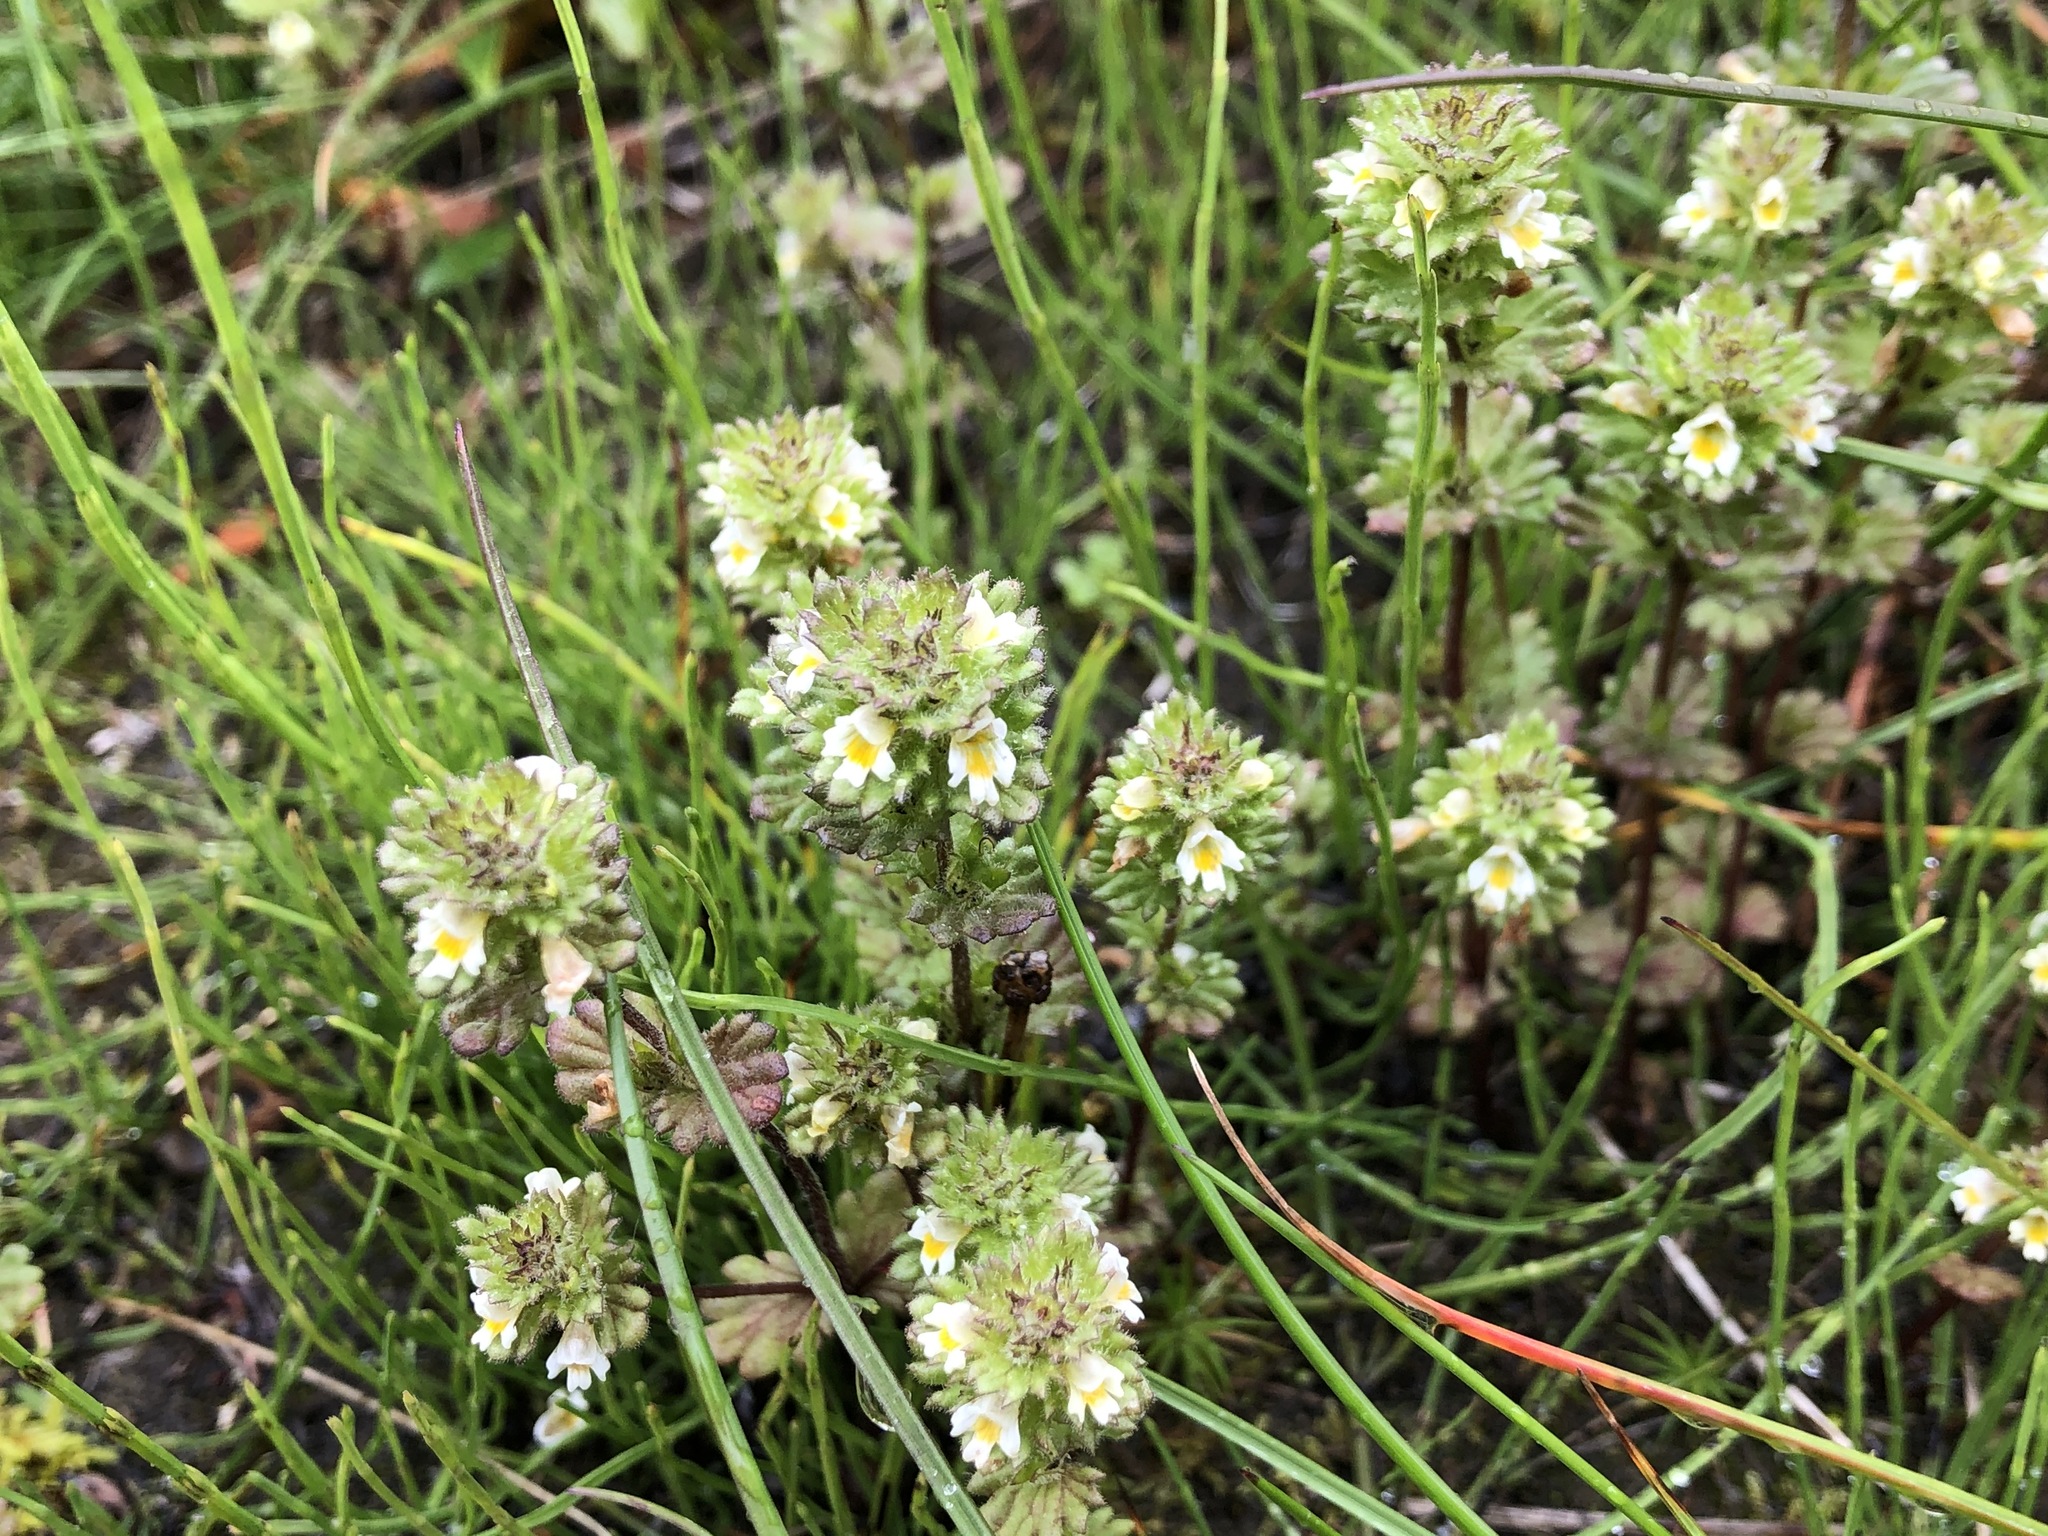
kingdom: Plantae
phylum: Tracheophyta
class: Magnoliopsida
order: Lamiales
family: Orobanchaceae
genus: Euphrasia
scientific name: Euphrasia subarctica
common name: Subarctic eyebright
